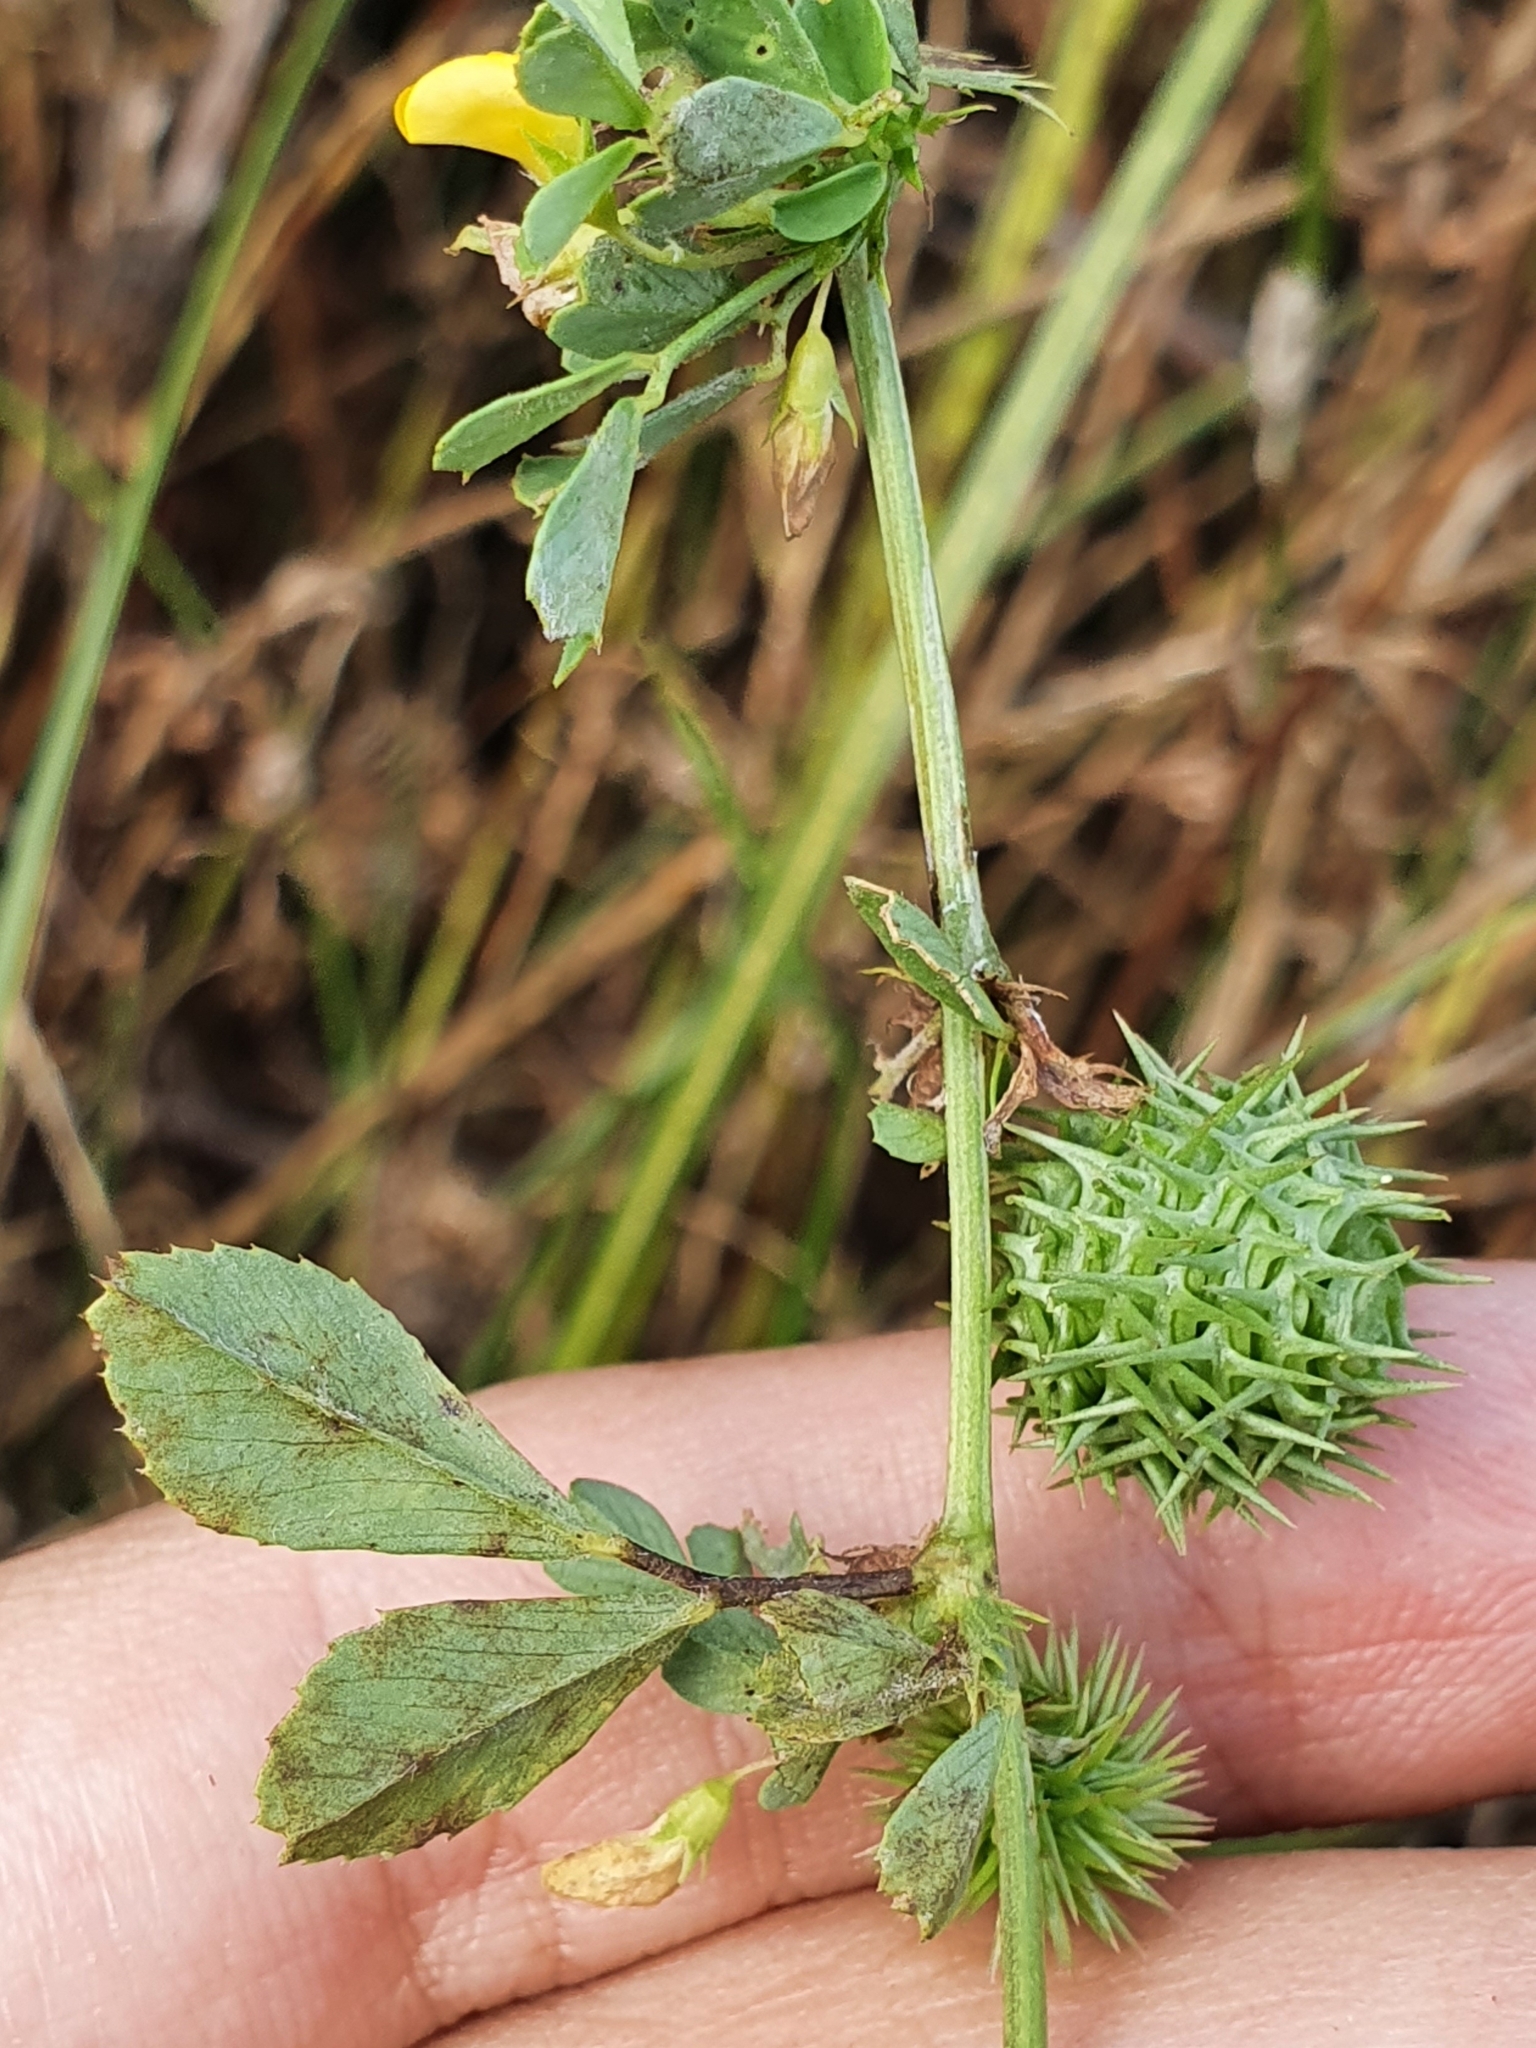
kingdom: Plantae
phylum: Tracheophyta
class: Magnoliopsida
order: Fabales
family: Fabaceae
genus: Medicago
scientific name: Medicago polymorpha
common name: Burclover
